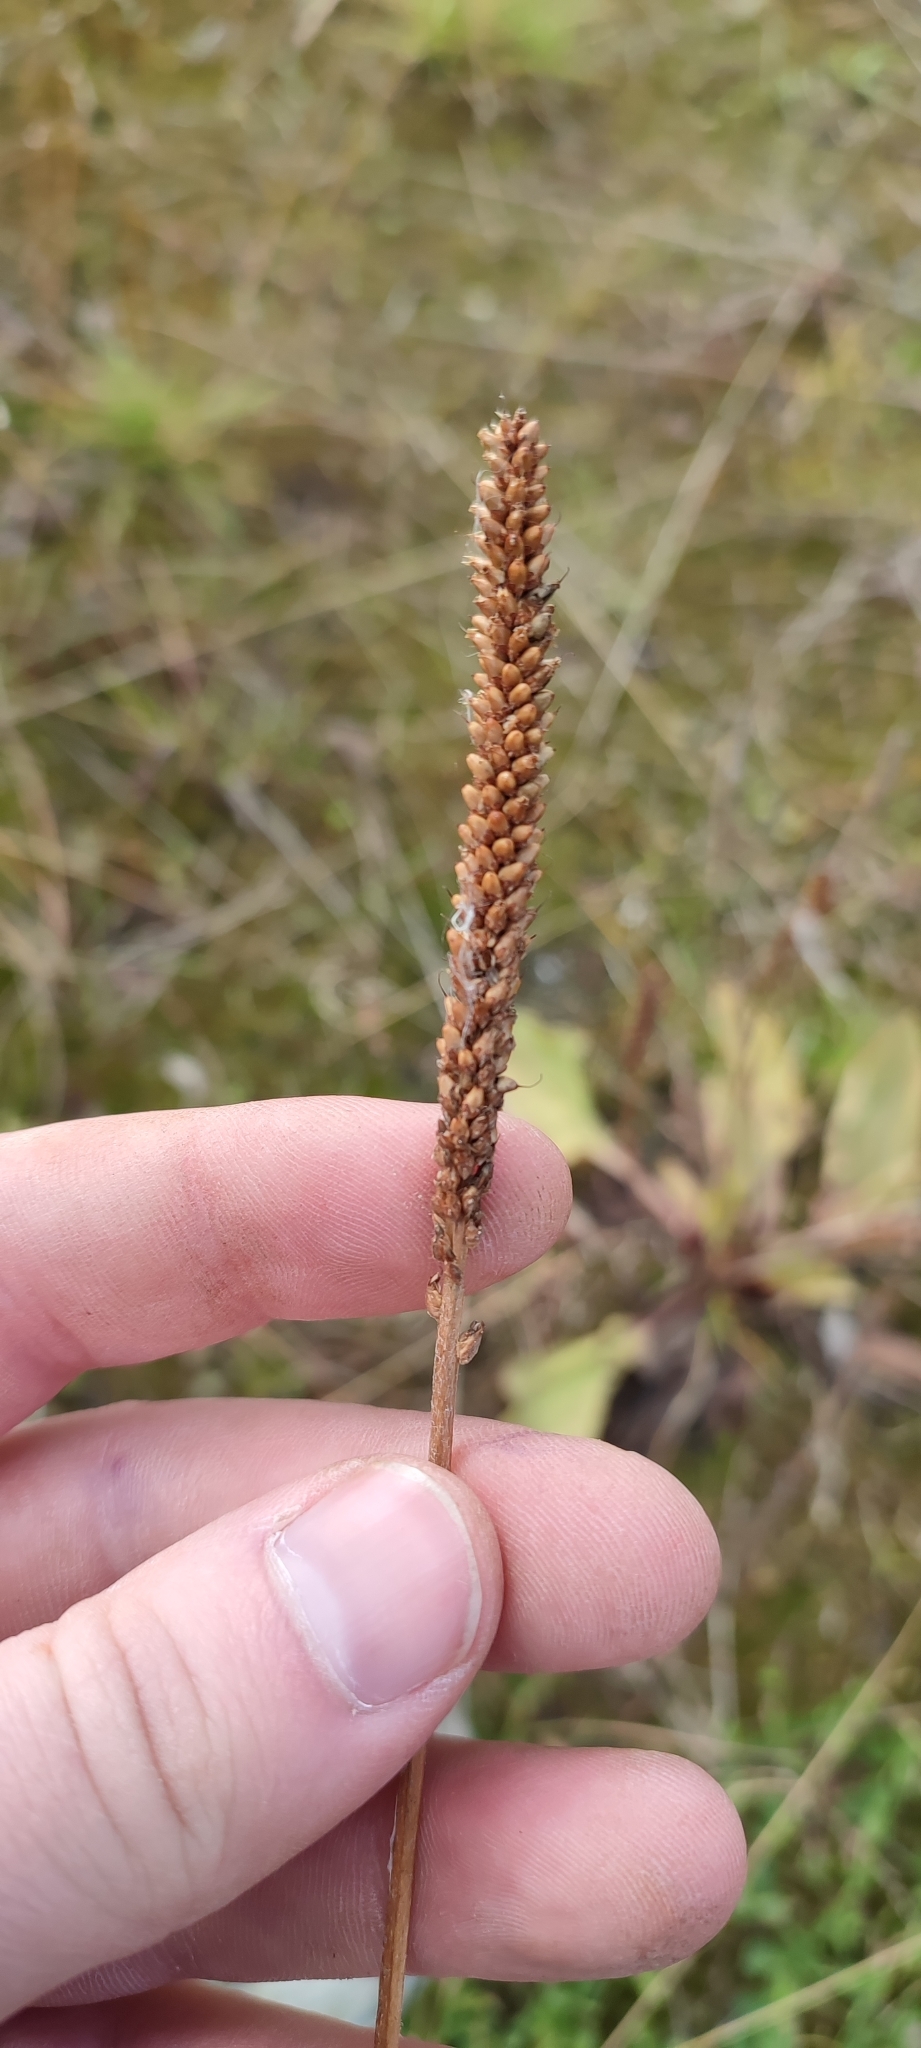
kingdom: Plantae
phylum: Tracheophyta
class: Magnoliopsida
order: Lamiales
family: Plantaginaceae
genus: Plantago
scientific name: Plantago major
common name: Common plantain
